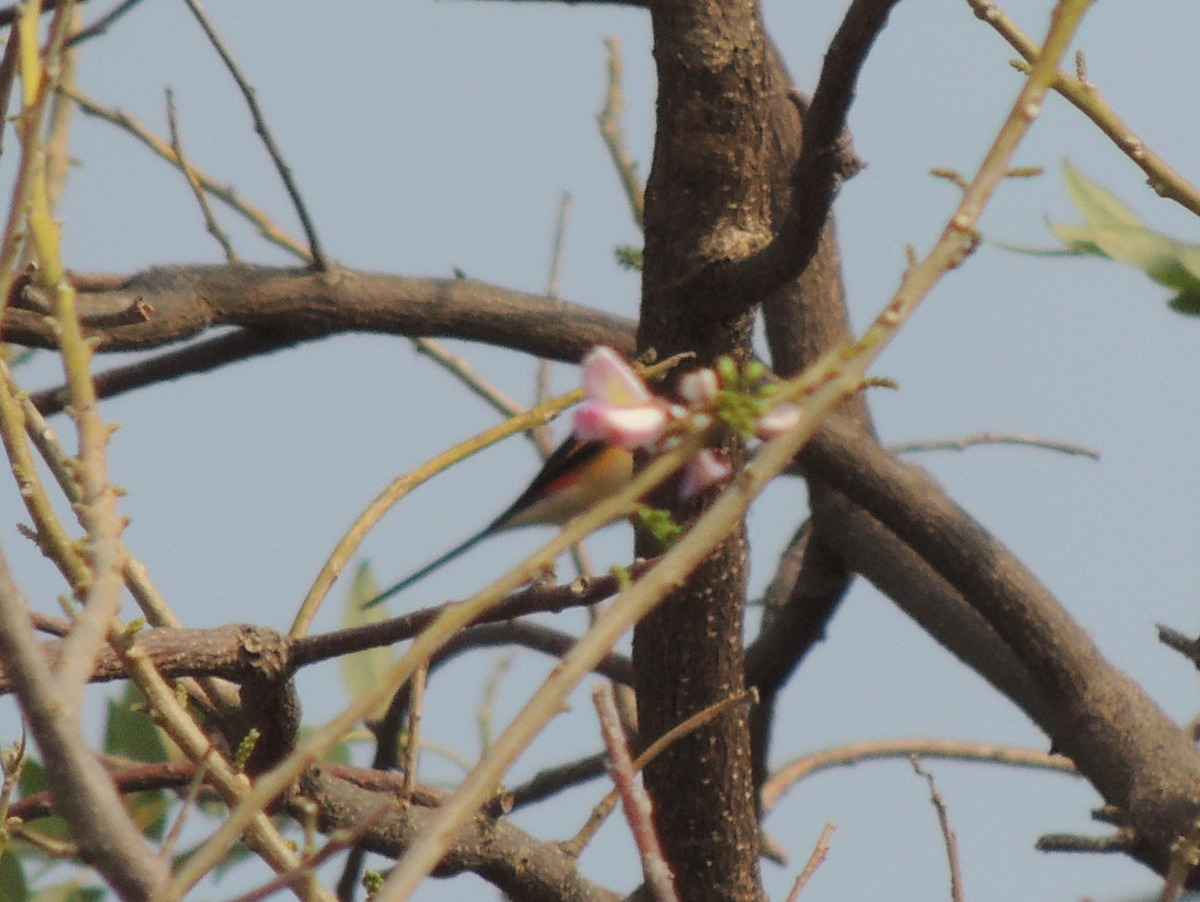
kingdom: Animalia
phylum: Chordata
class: Aves
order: Passeriformes
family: Campephagidae
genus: Pericrocotus
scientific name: Pericrocotus cinnamomeus
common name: Small minivet
